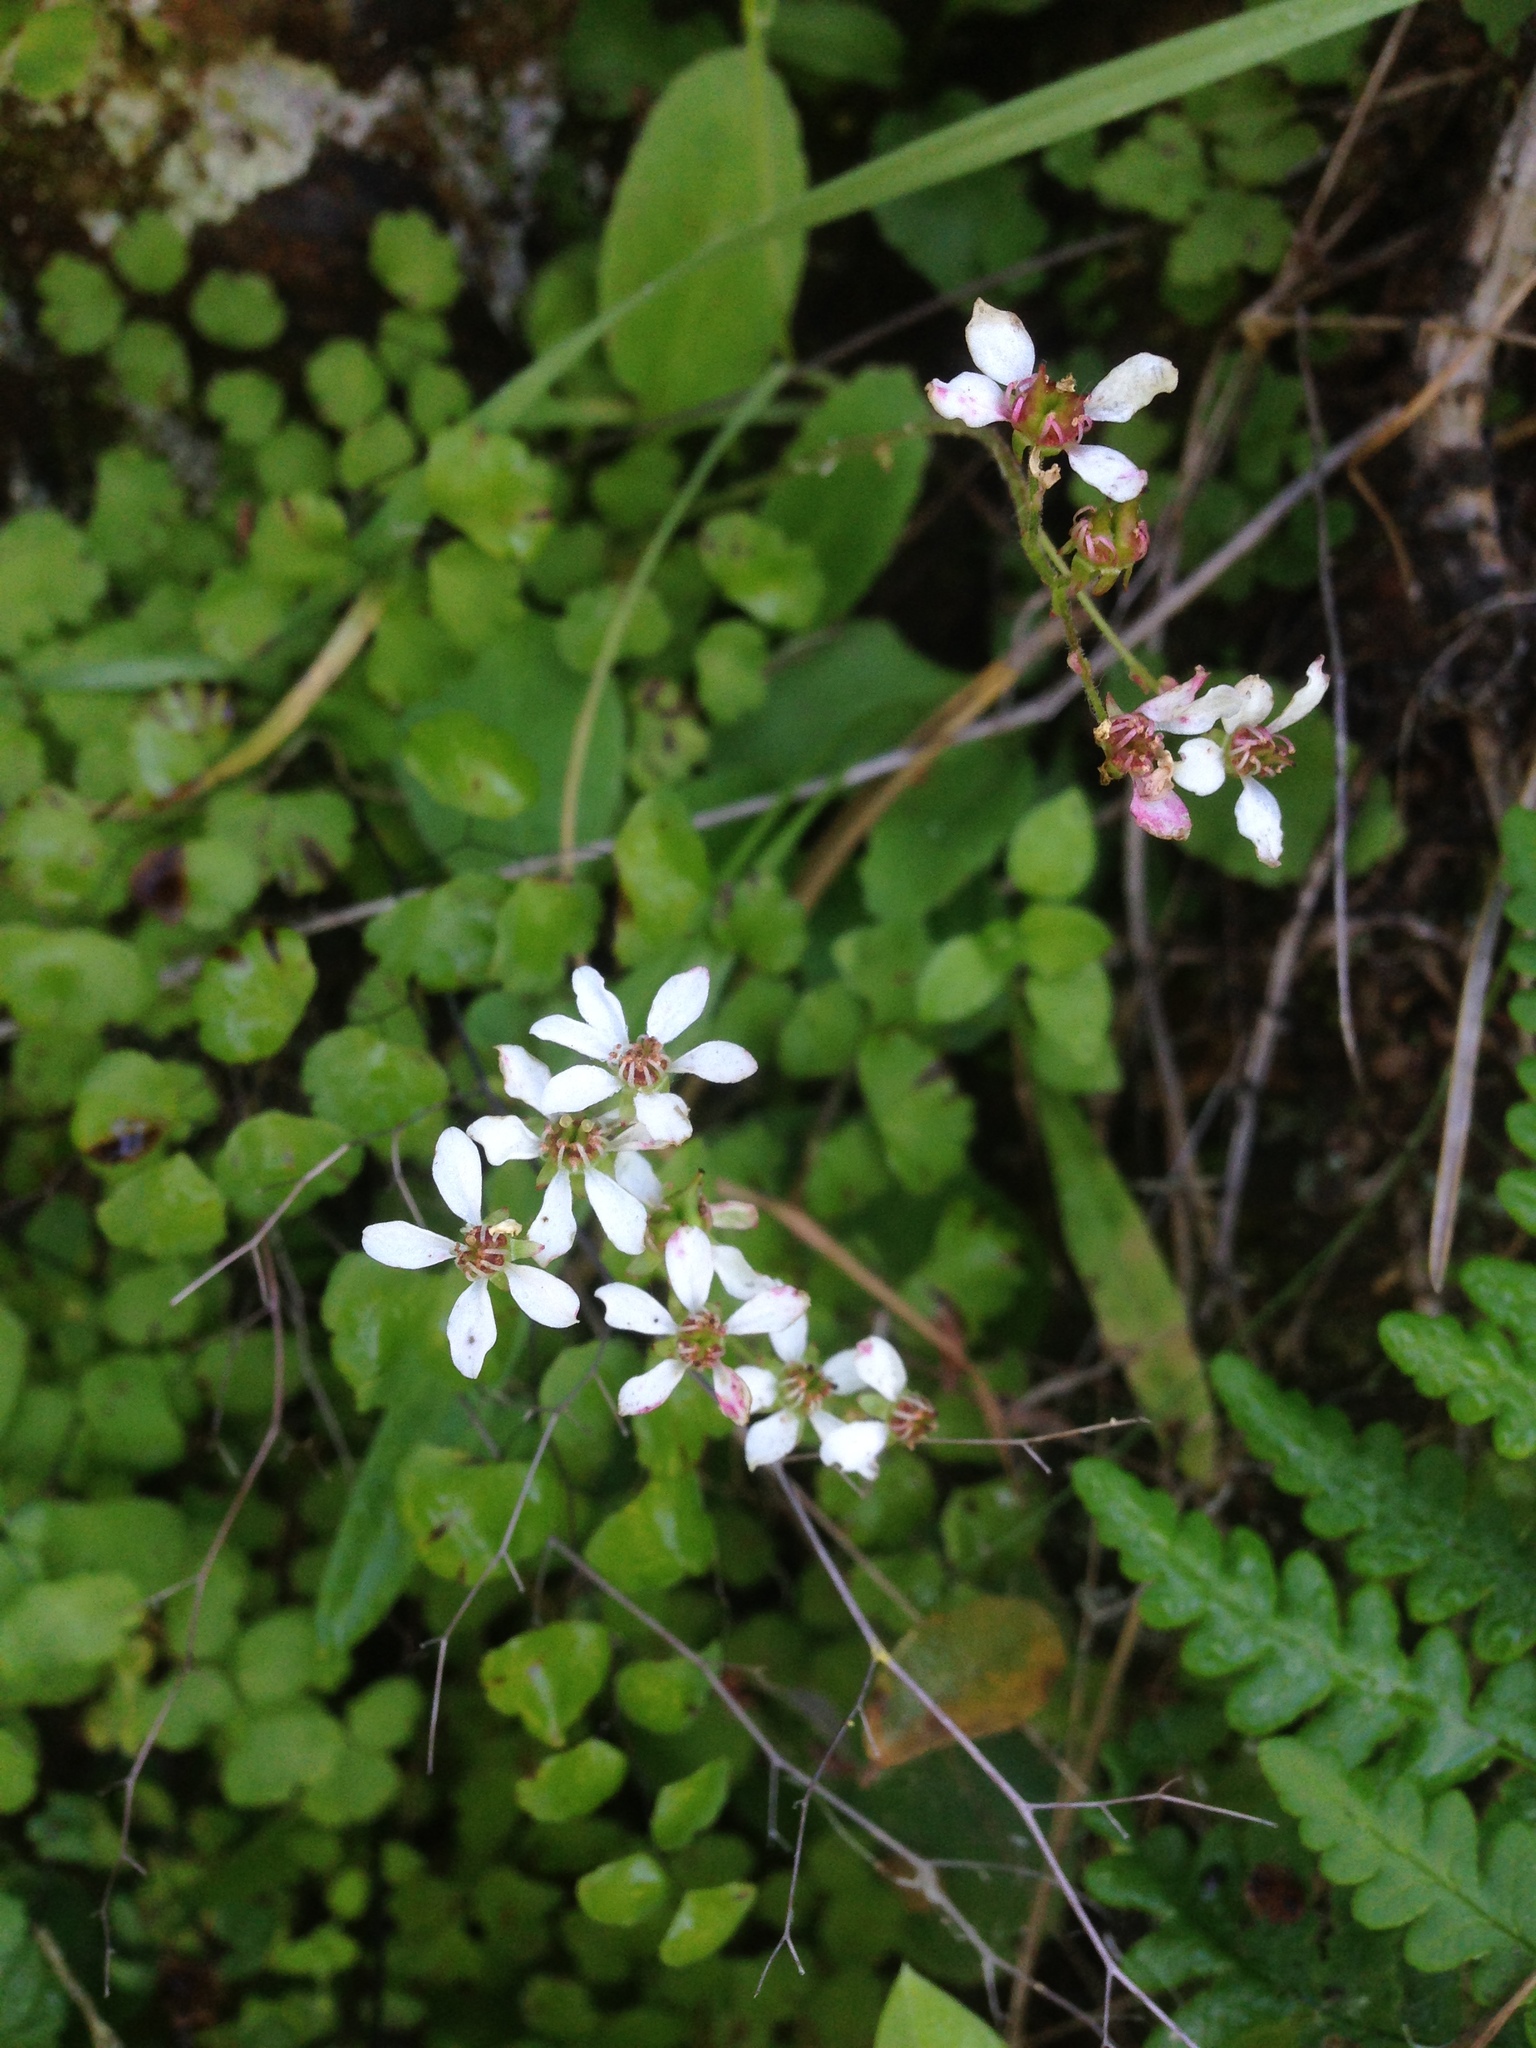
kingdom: Plantae
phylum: Tracheophyta
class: Magnoliopsida
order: Saxifragales
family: Saxifragaceae
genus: Micranthes
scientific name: Micranthes californica
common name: California saxifrage
